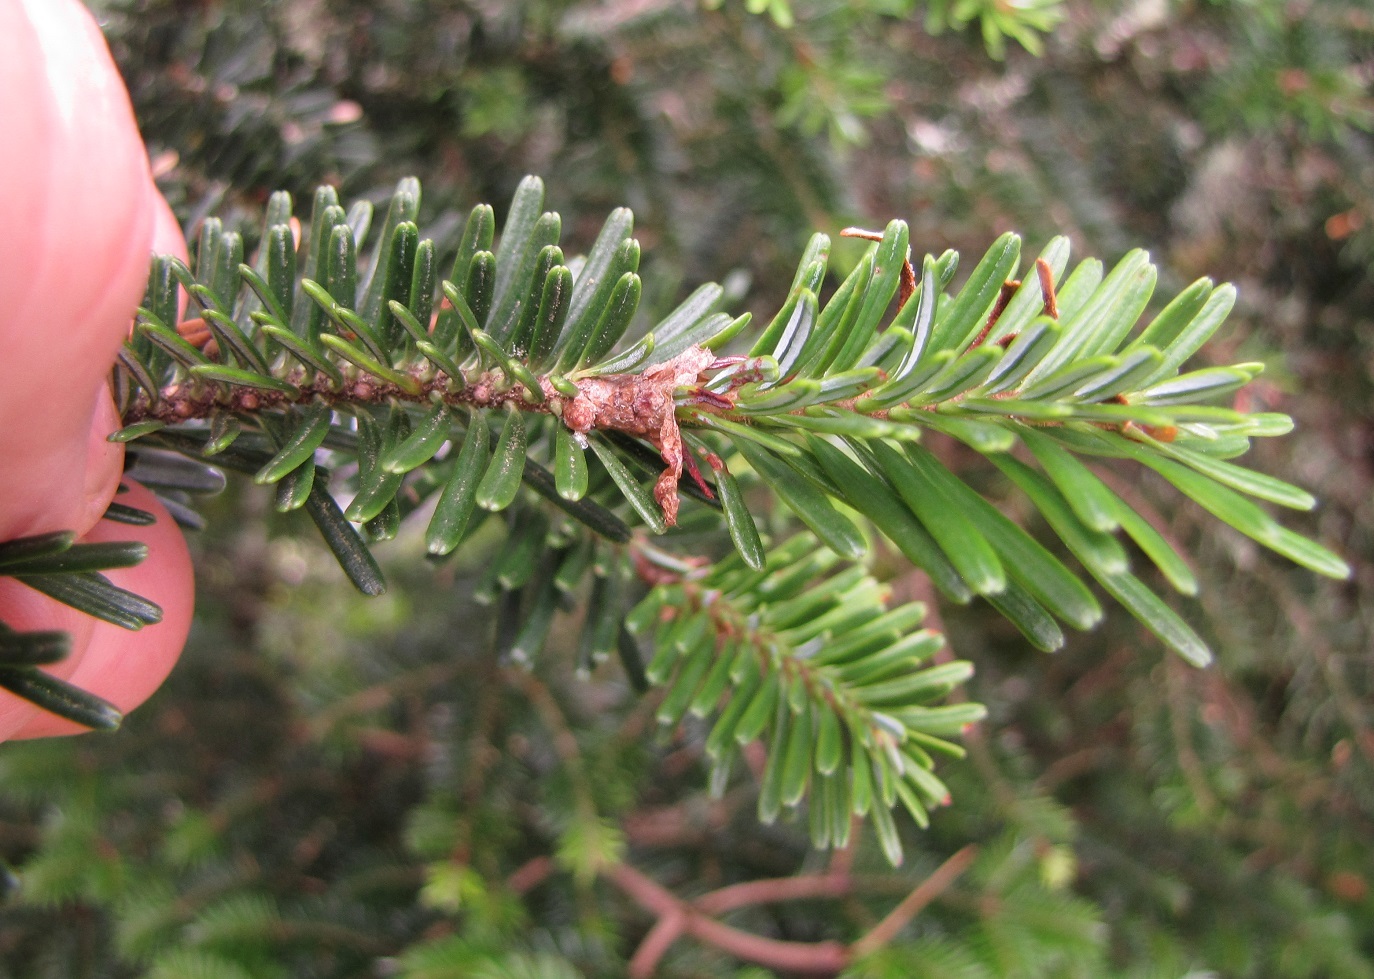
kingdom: Plantae
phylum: Tracheophyta
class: Pinopsida
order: Pinales
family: Pinaceae
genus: Abies
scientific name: Abies fraseri
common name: Fraser fir
